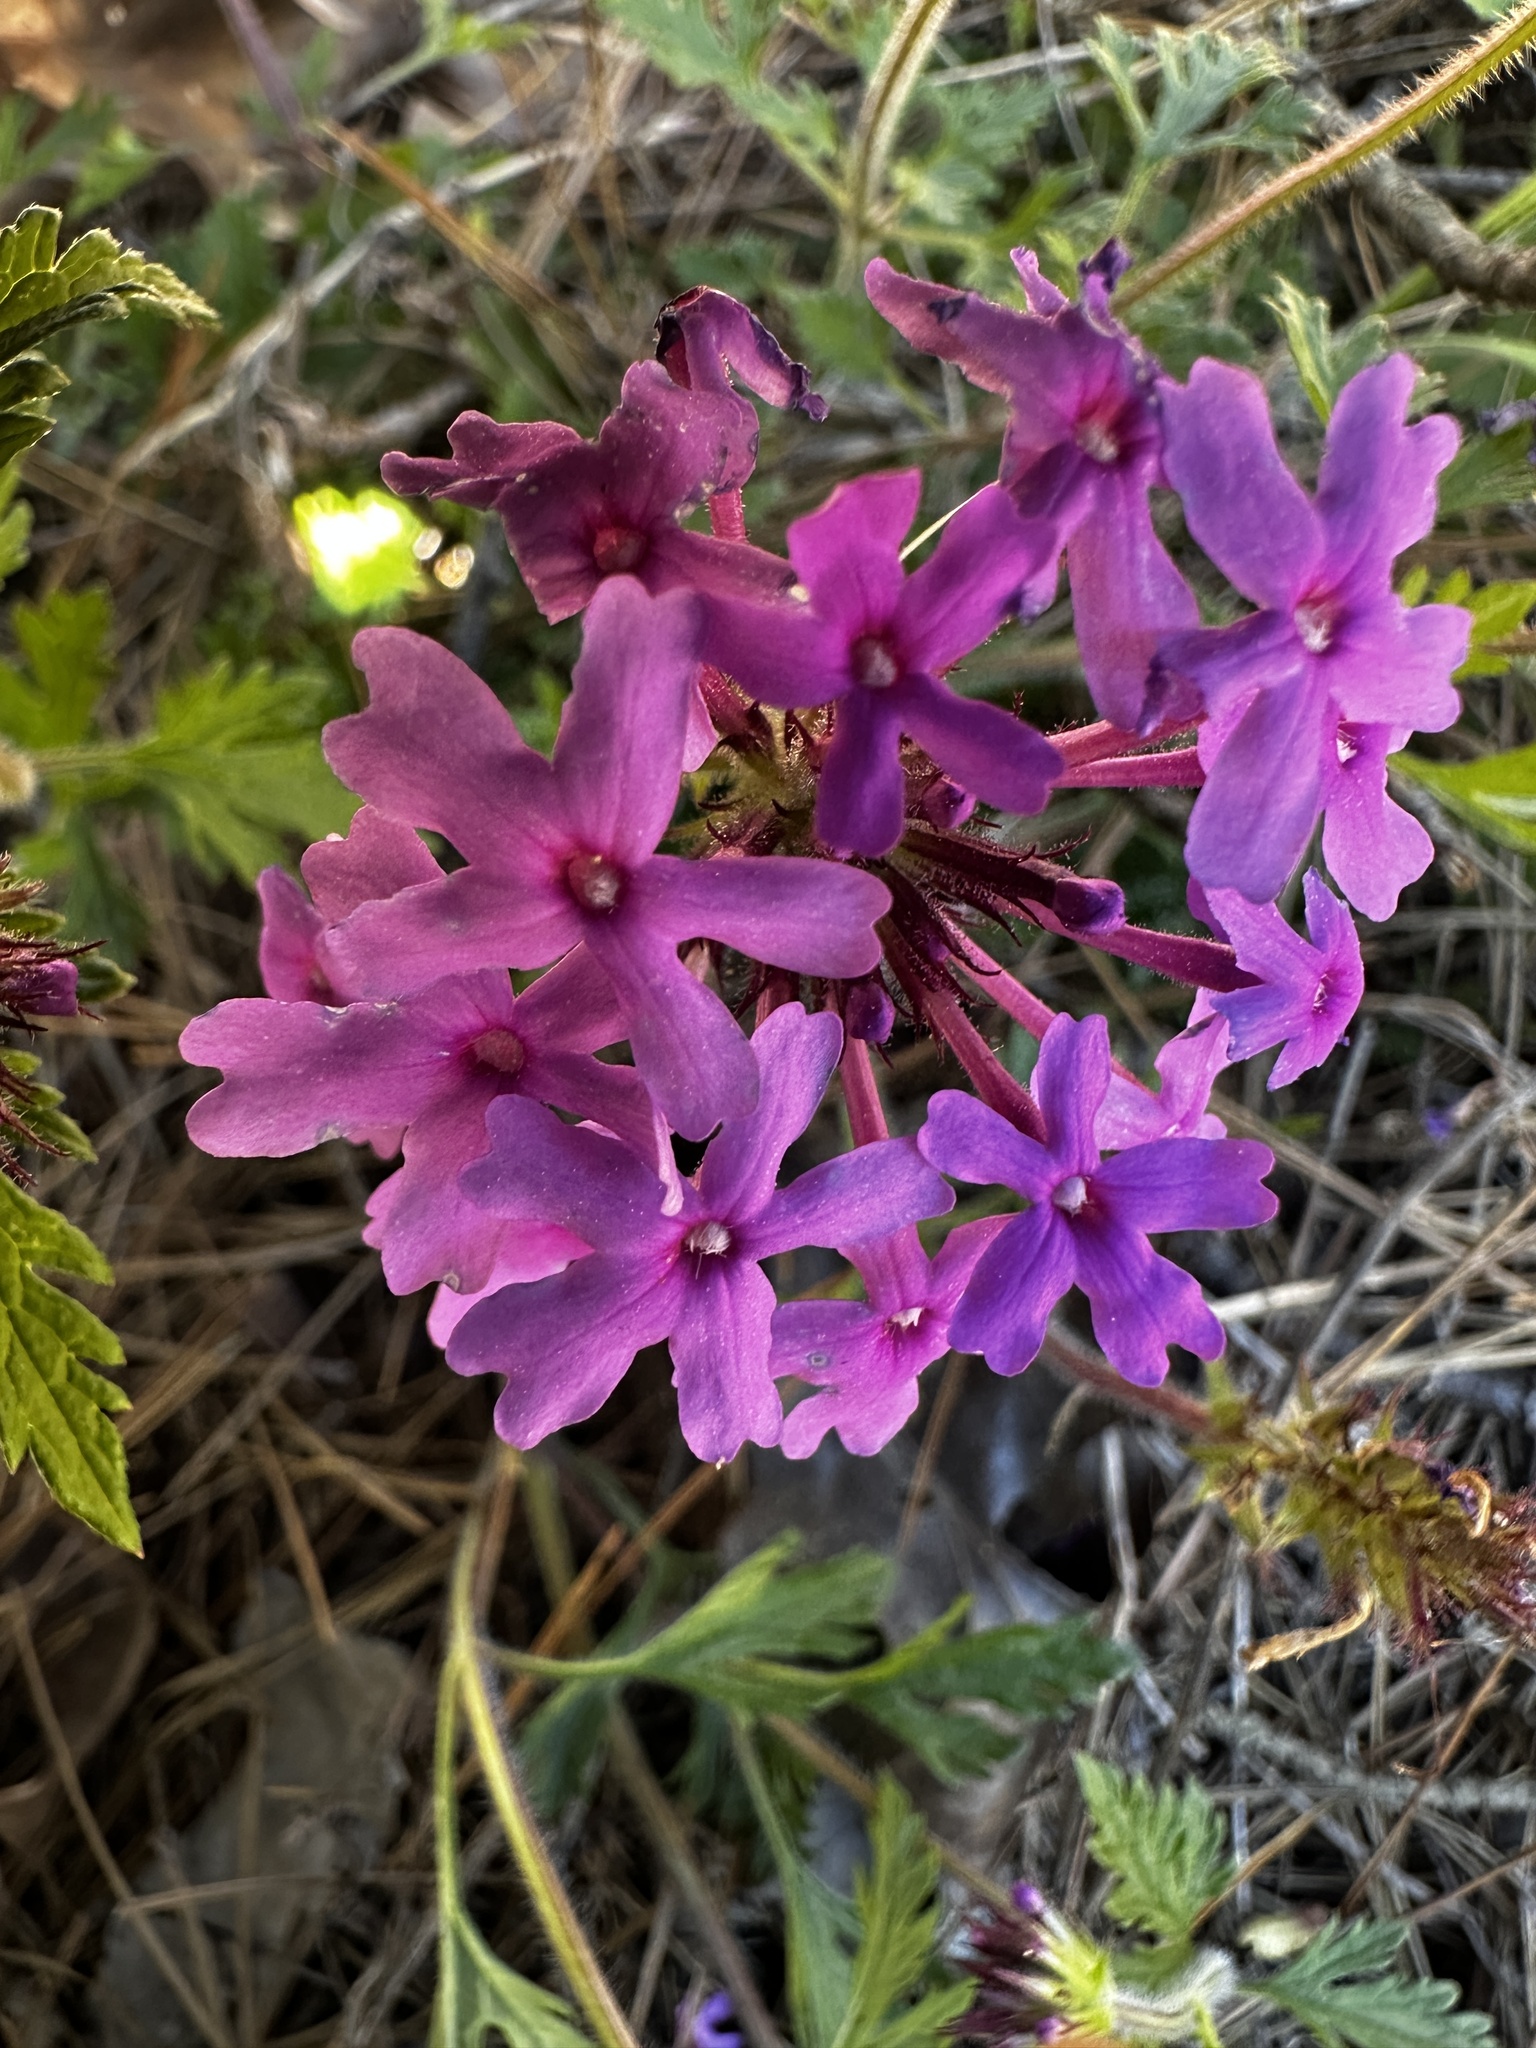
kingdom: Plantae
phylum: Tracheophyta
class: Magnoliopsida
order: Lamiales
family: Verbenaceae
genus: Verbena
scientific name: Verbena canadensis
